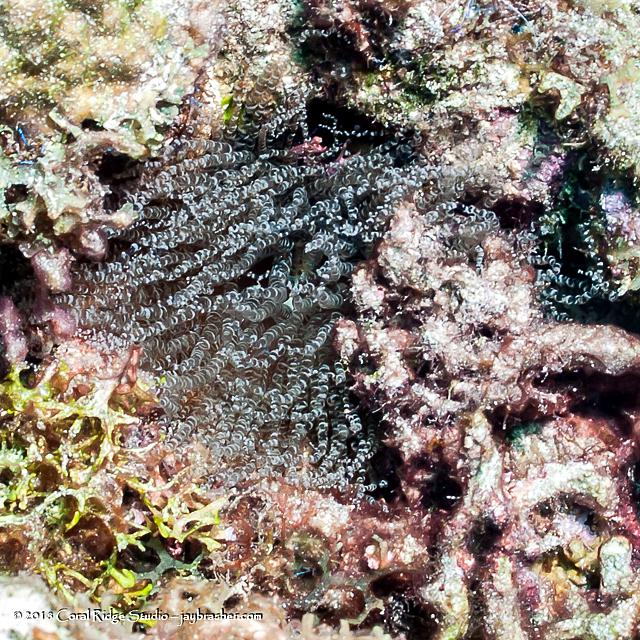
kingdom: Animalia
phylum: Cnidaria
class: Anthozoa
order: Actiniaria
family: Aiptasiidae
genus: Bartholomea
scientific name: Bartholomea annulata
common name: Corkscrew anemone
